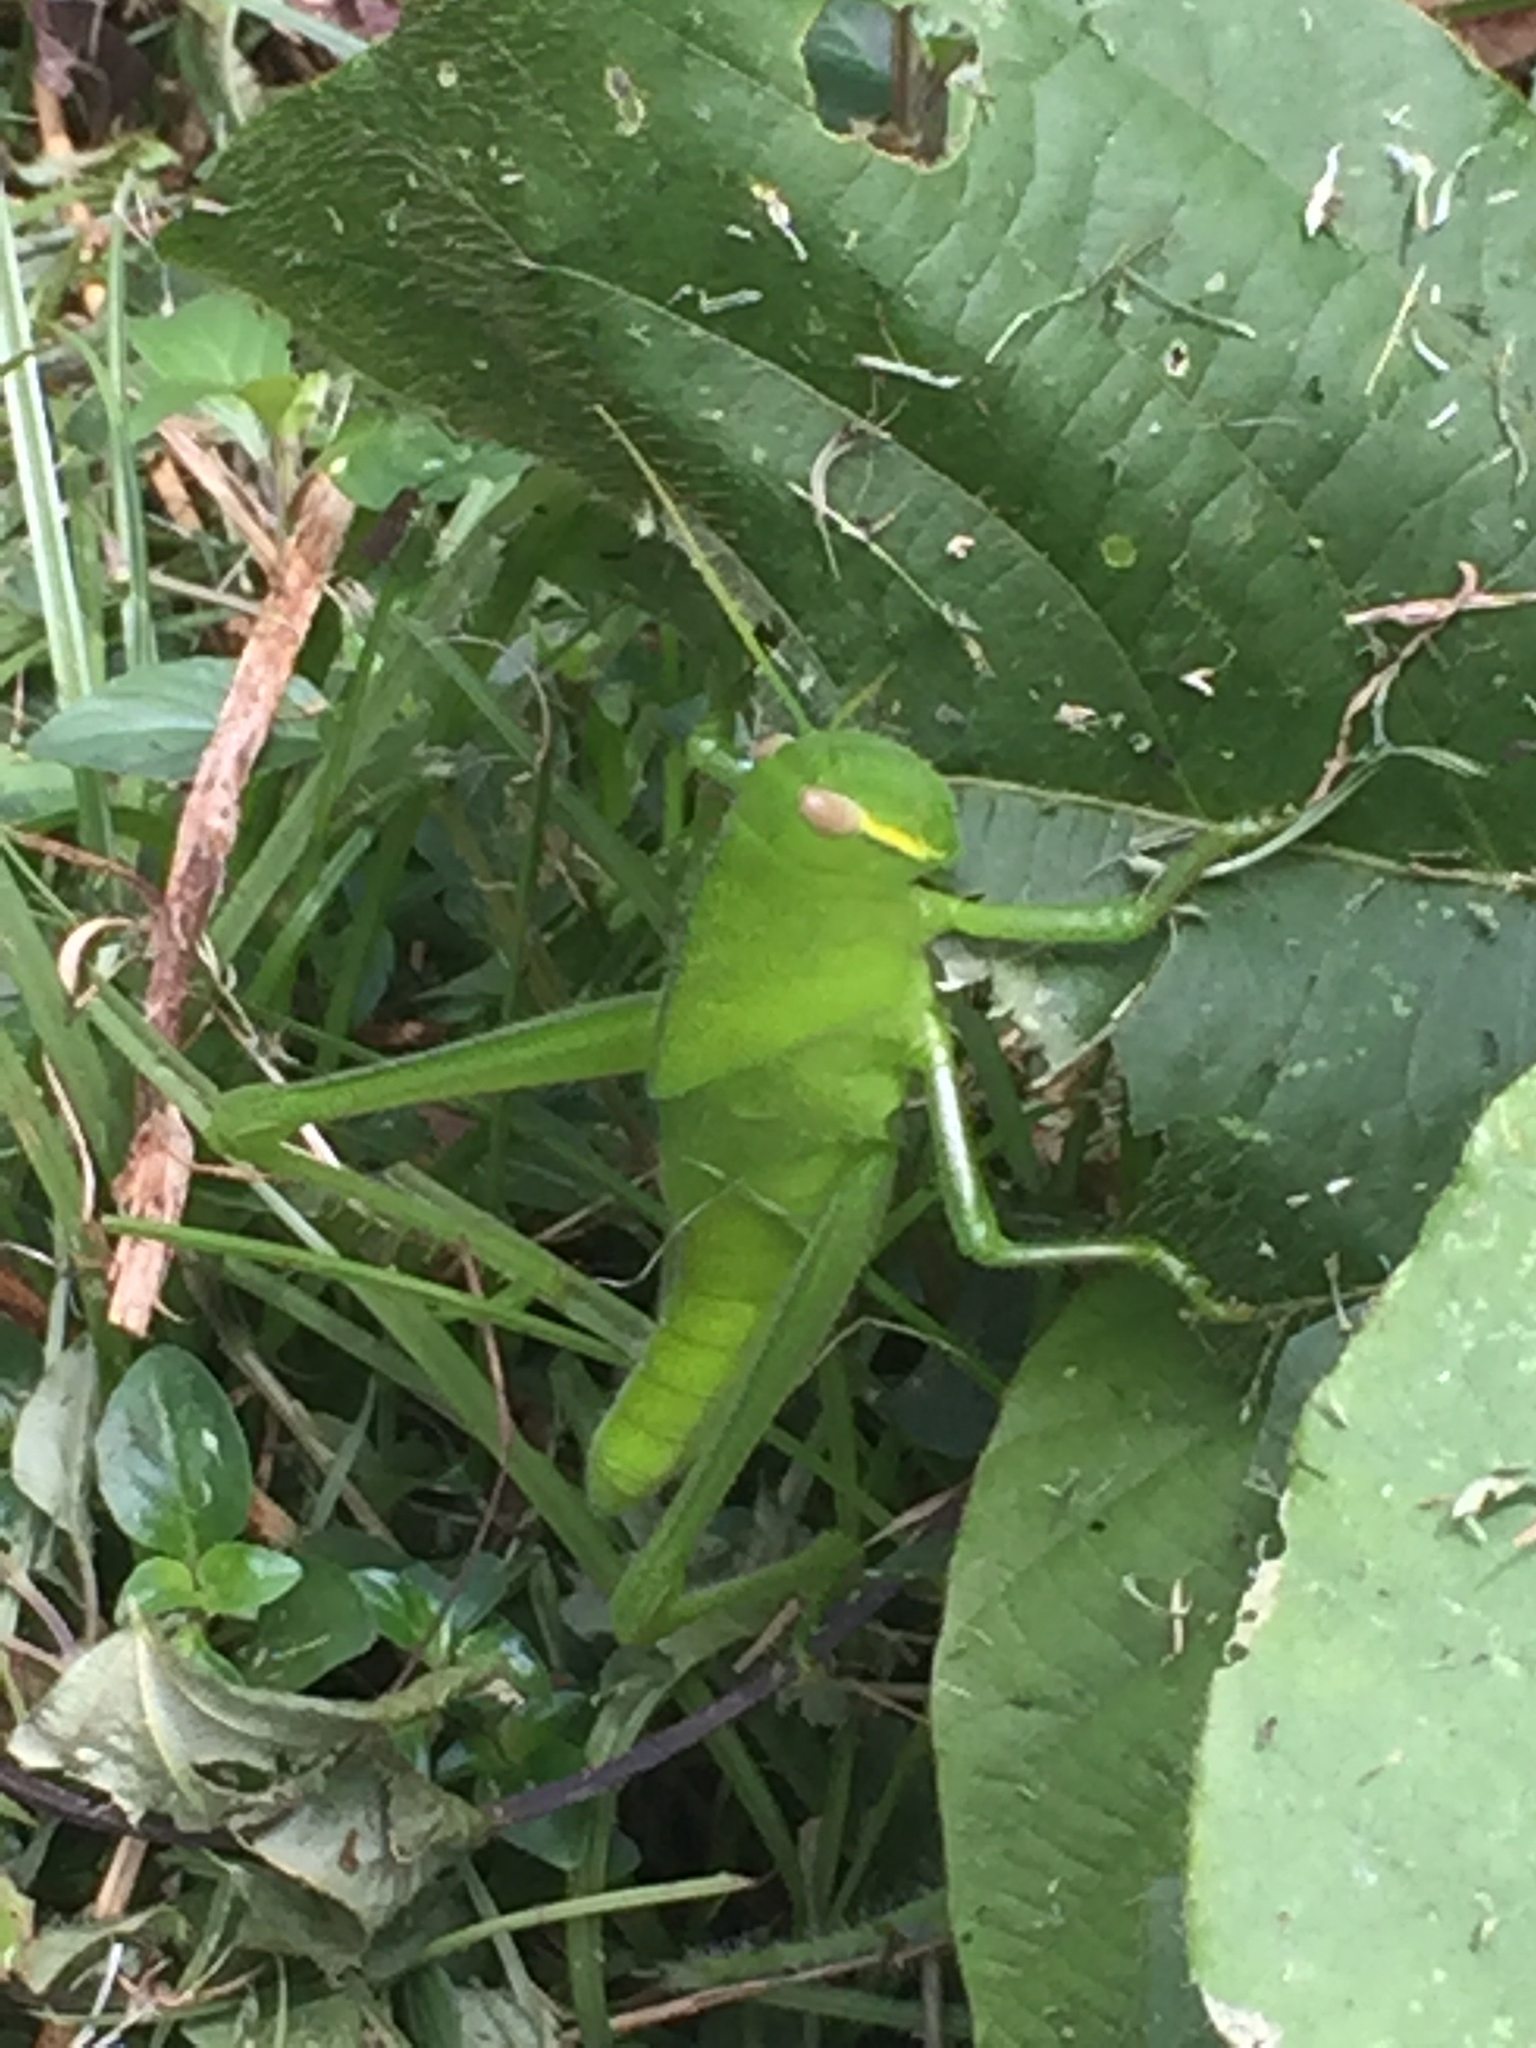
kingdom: Animalia
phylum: Arthropoda
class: Insecta
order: Orthoptera
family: Acrididae
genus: Chondracris
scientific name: Chondracris rosea
